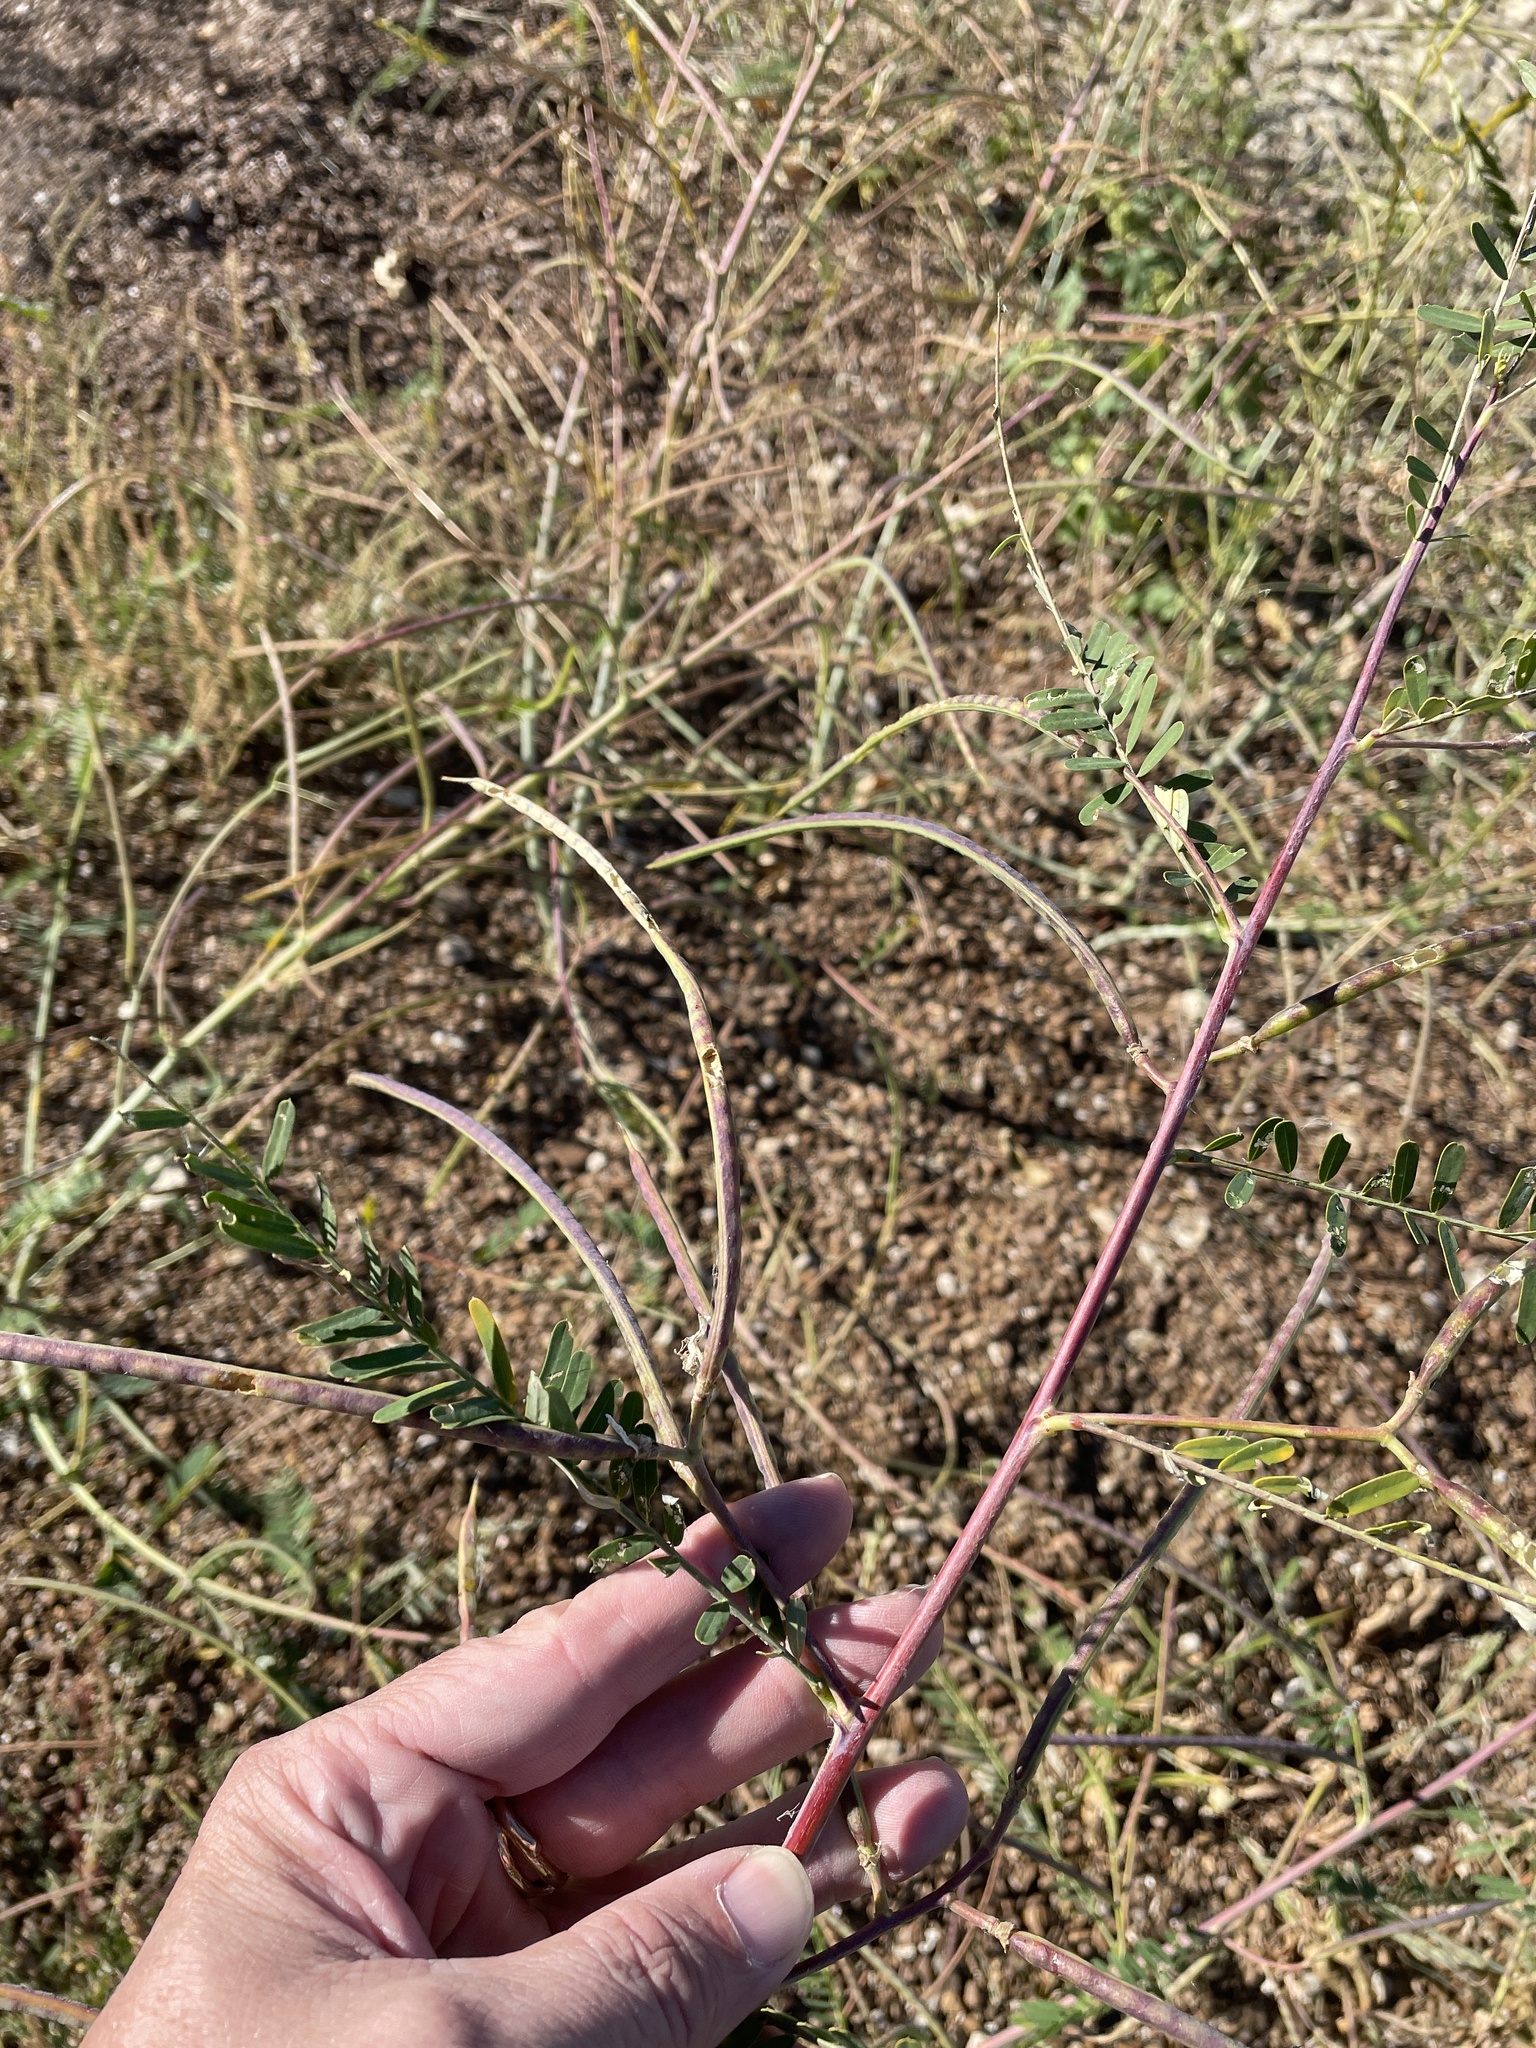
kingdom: Plantae
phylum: Tracheophyta
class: Magnoliopsida
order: Fabales
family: Fabaceae
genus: Sesbania
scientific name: Sesbania herbacea
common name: Bigpod sesbania
